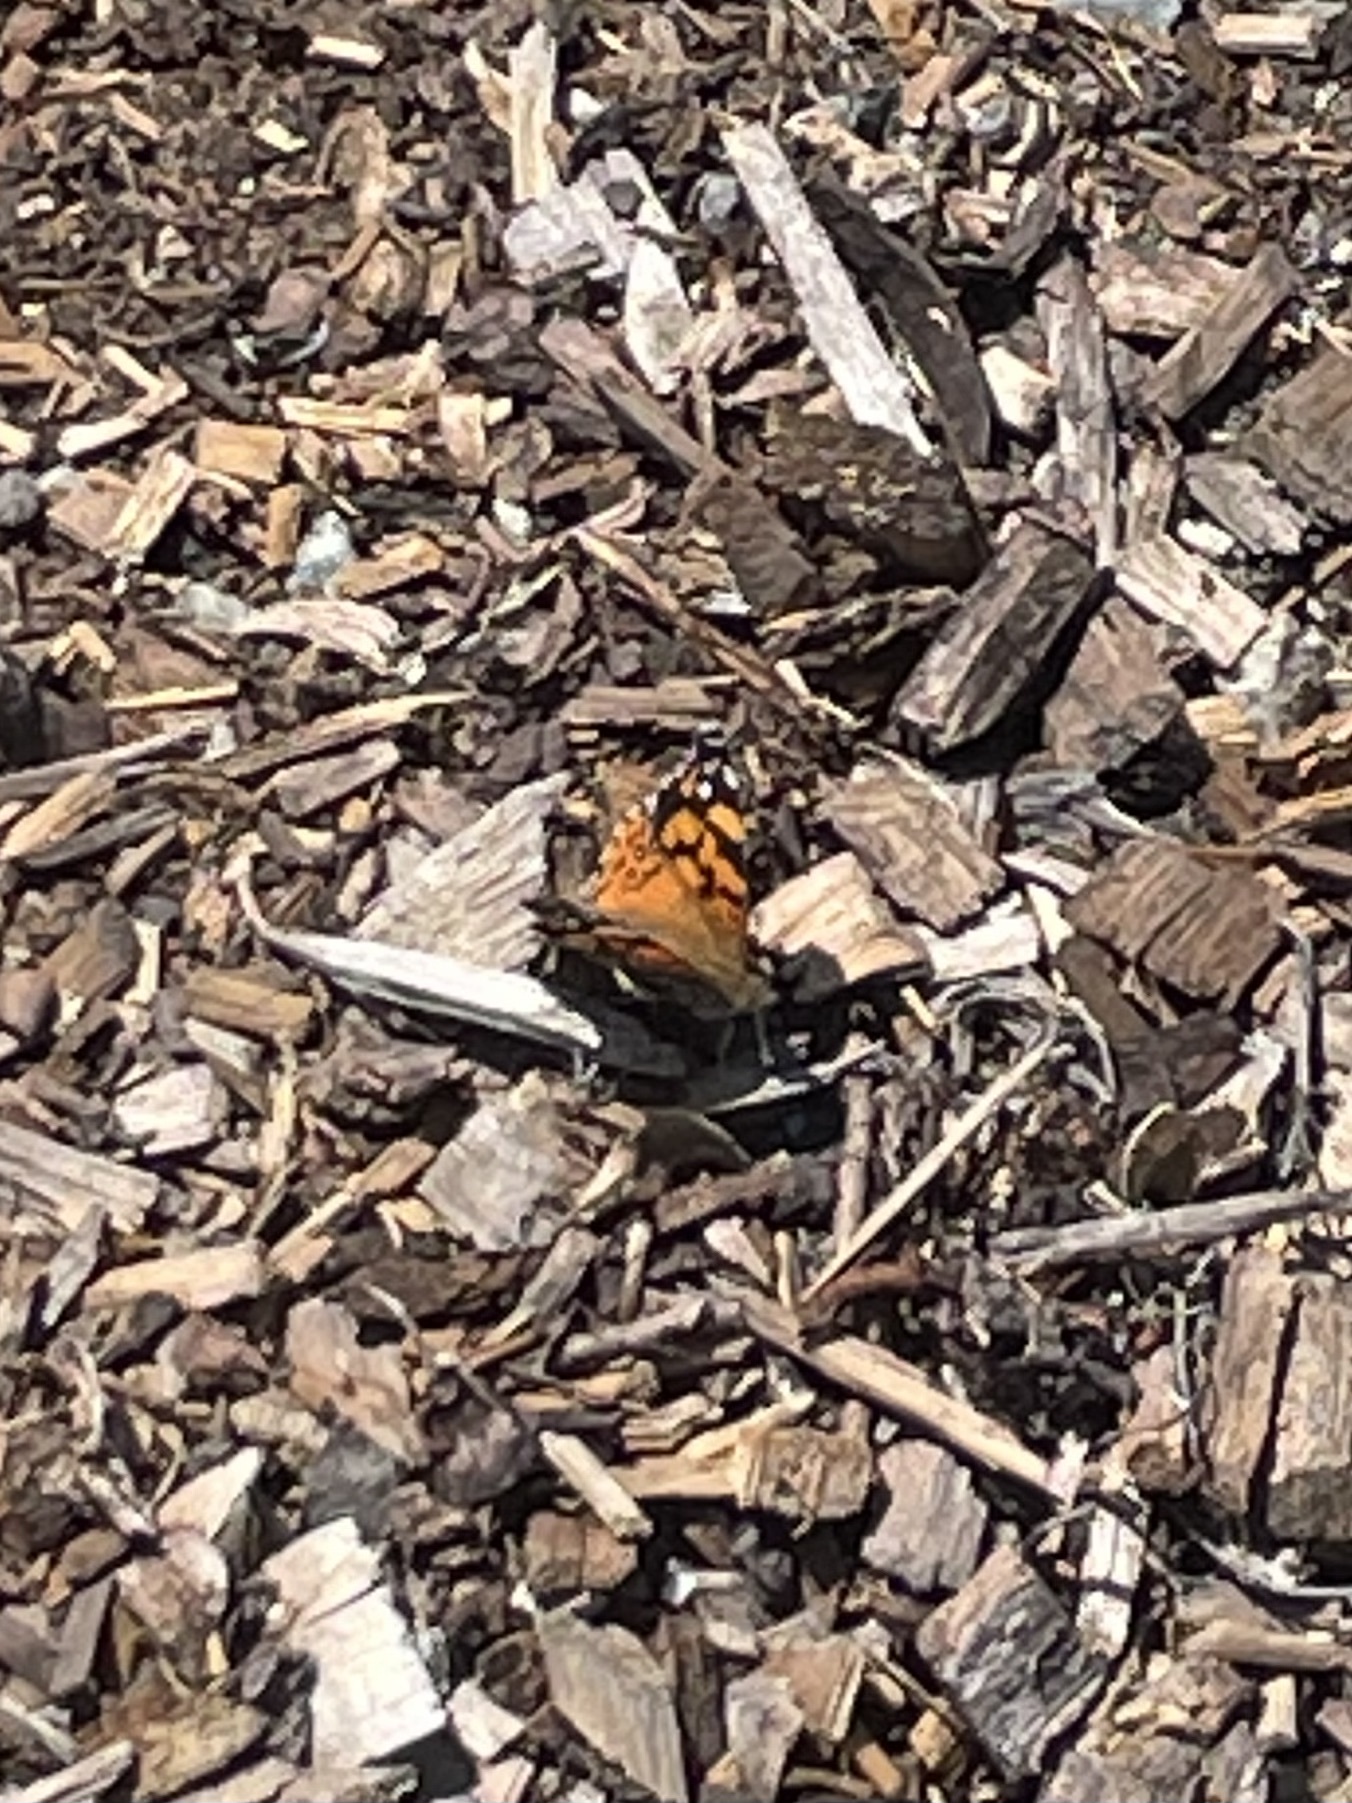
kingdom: Animalia
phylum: Arthropoda
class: Insecta
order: Lepidoptera
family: Nymphalidae
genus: Vanessa
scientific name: Vanessa annabella
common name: West coast lady
